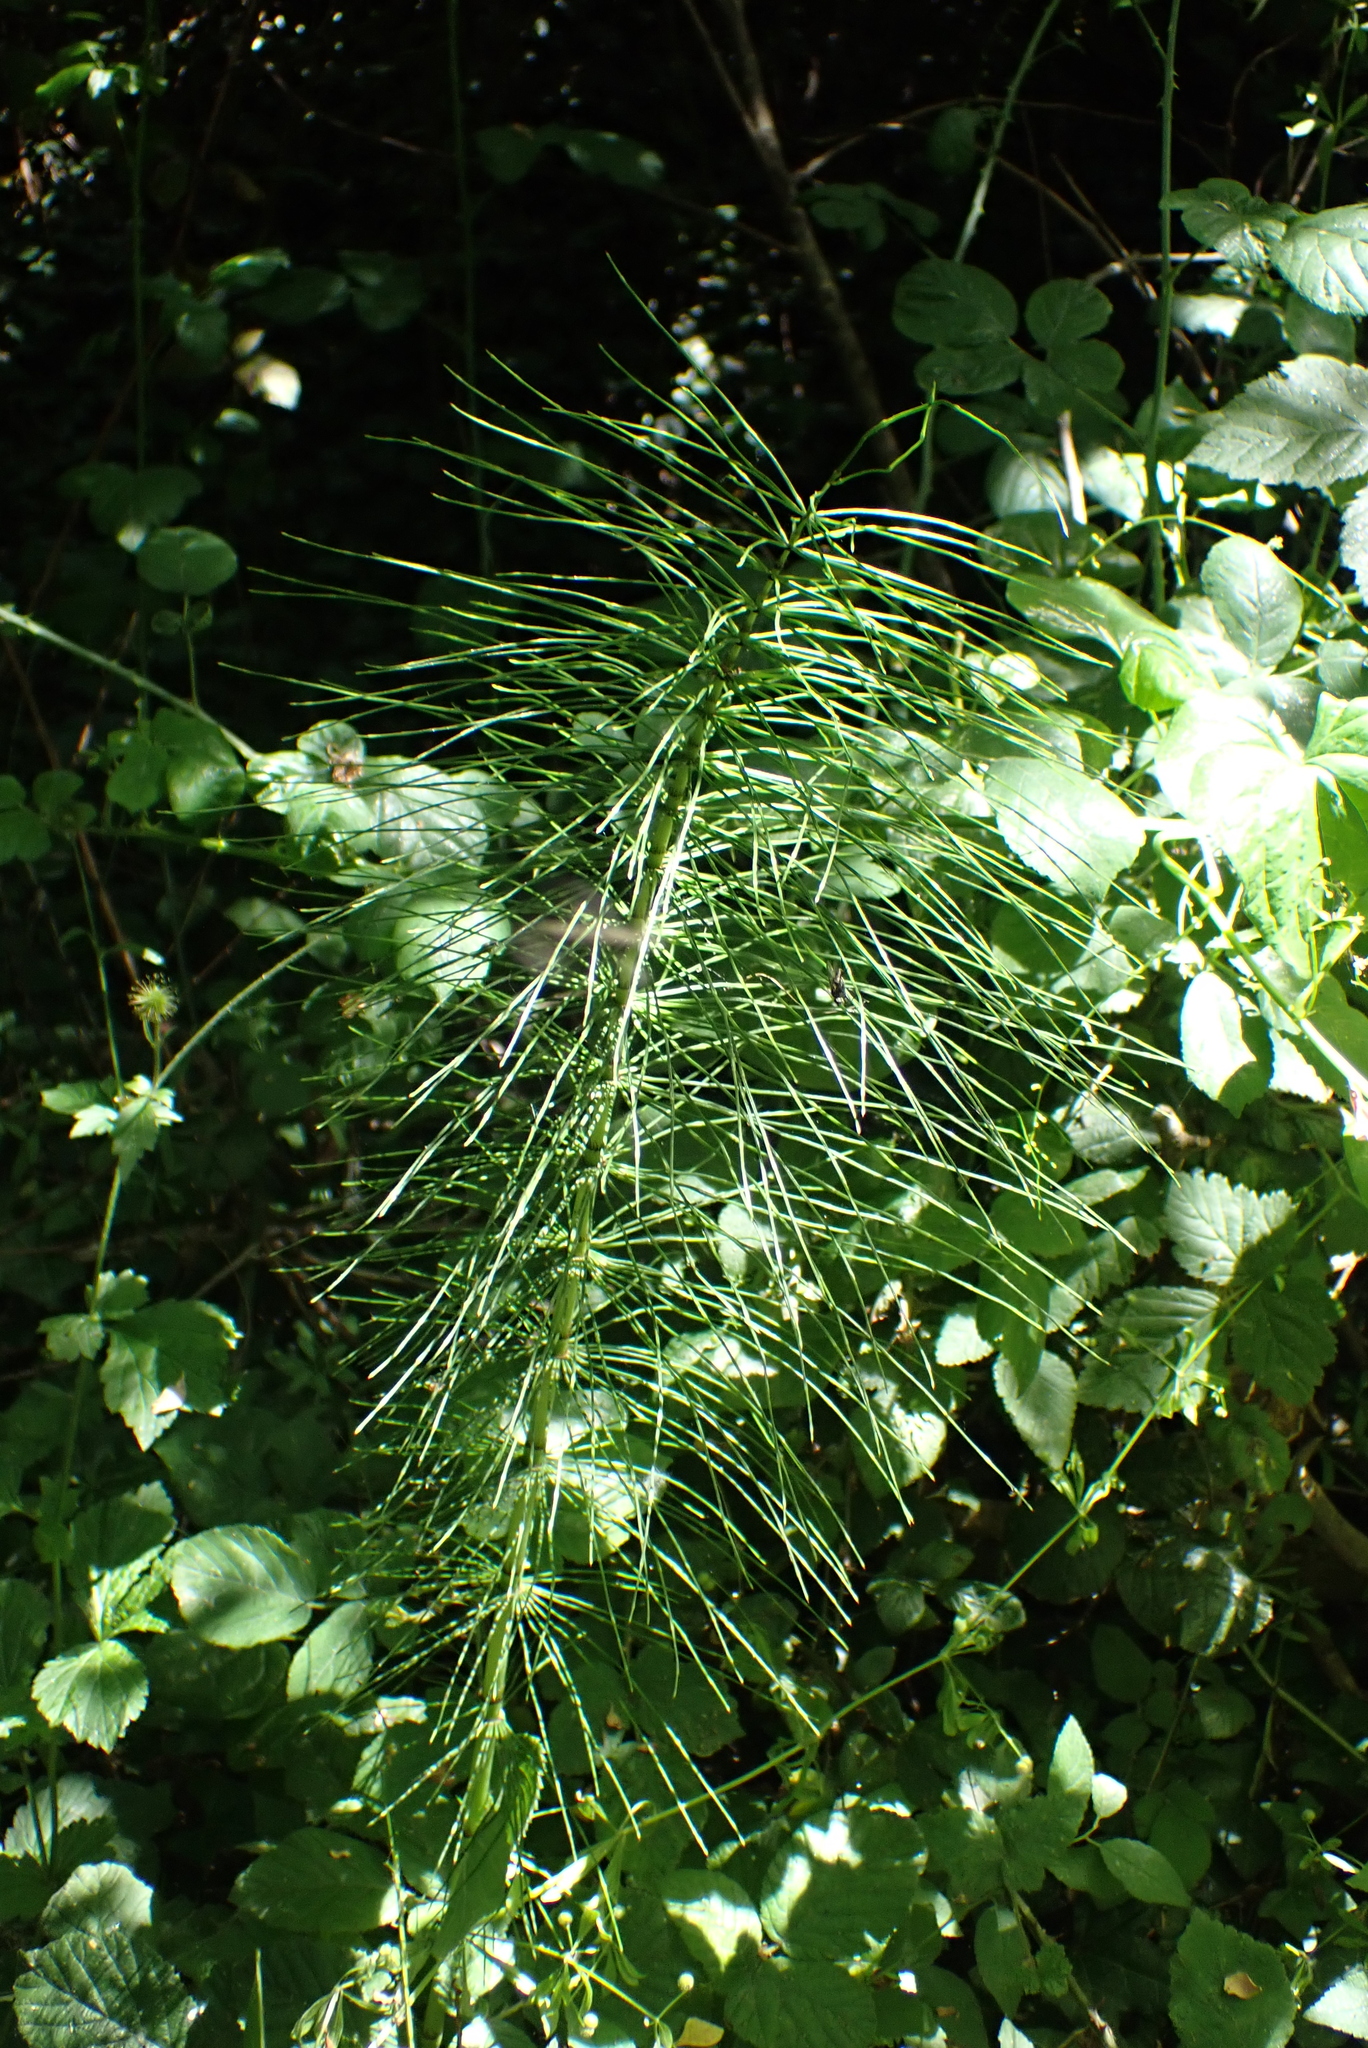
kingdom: Plantae
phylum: Tracheophyta
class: Polypodiopsida
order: Equisetales
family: Equisetaceae
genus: Equisetum
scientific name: Equisetum telmateia
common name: Great horsetail
